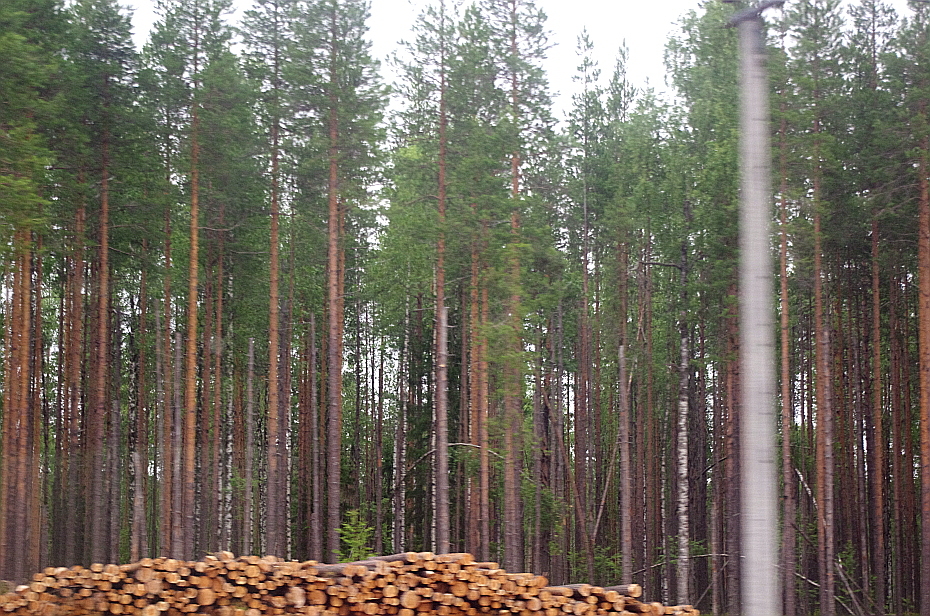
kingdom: Plantae
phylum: Tracheophyta
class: Pinopsida
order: Pinales
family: Pinaceae
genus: Pinus
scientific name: Pinus sylvestris
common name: Scots pine
